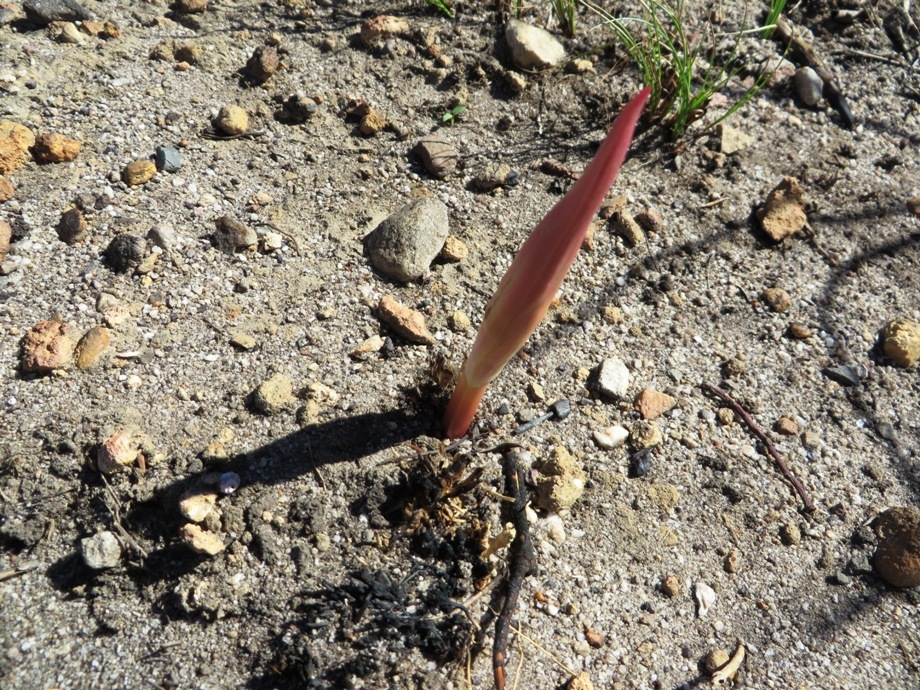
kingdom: Plantae
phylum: Tracheophyta
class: Liliopsida
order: Asparagales
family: Amaryllidaceae
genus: Amaryllis
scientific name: Amaryllis belladonna
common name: Jersey lily
